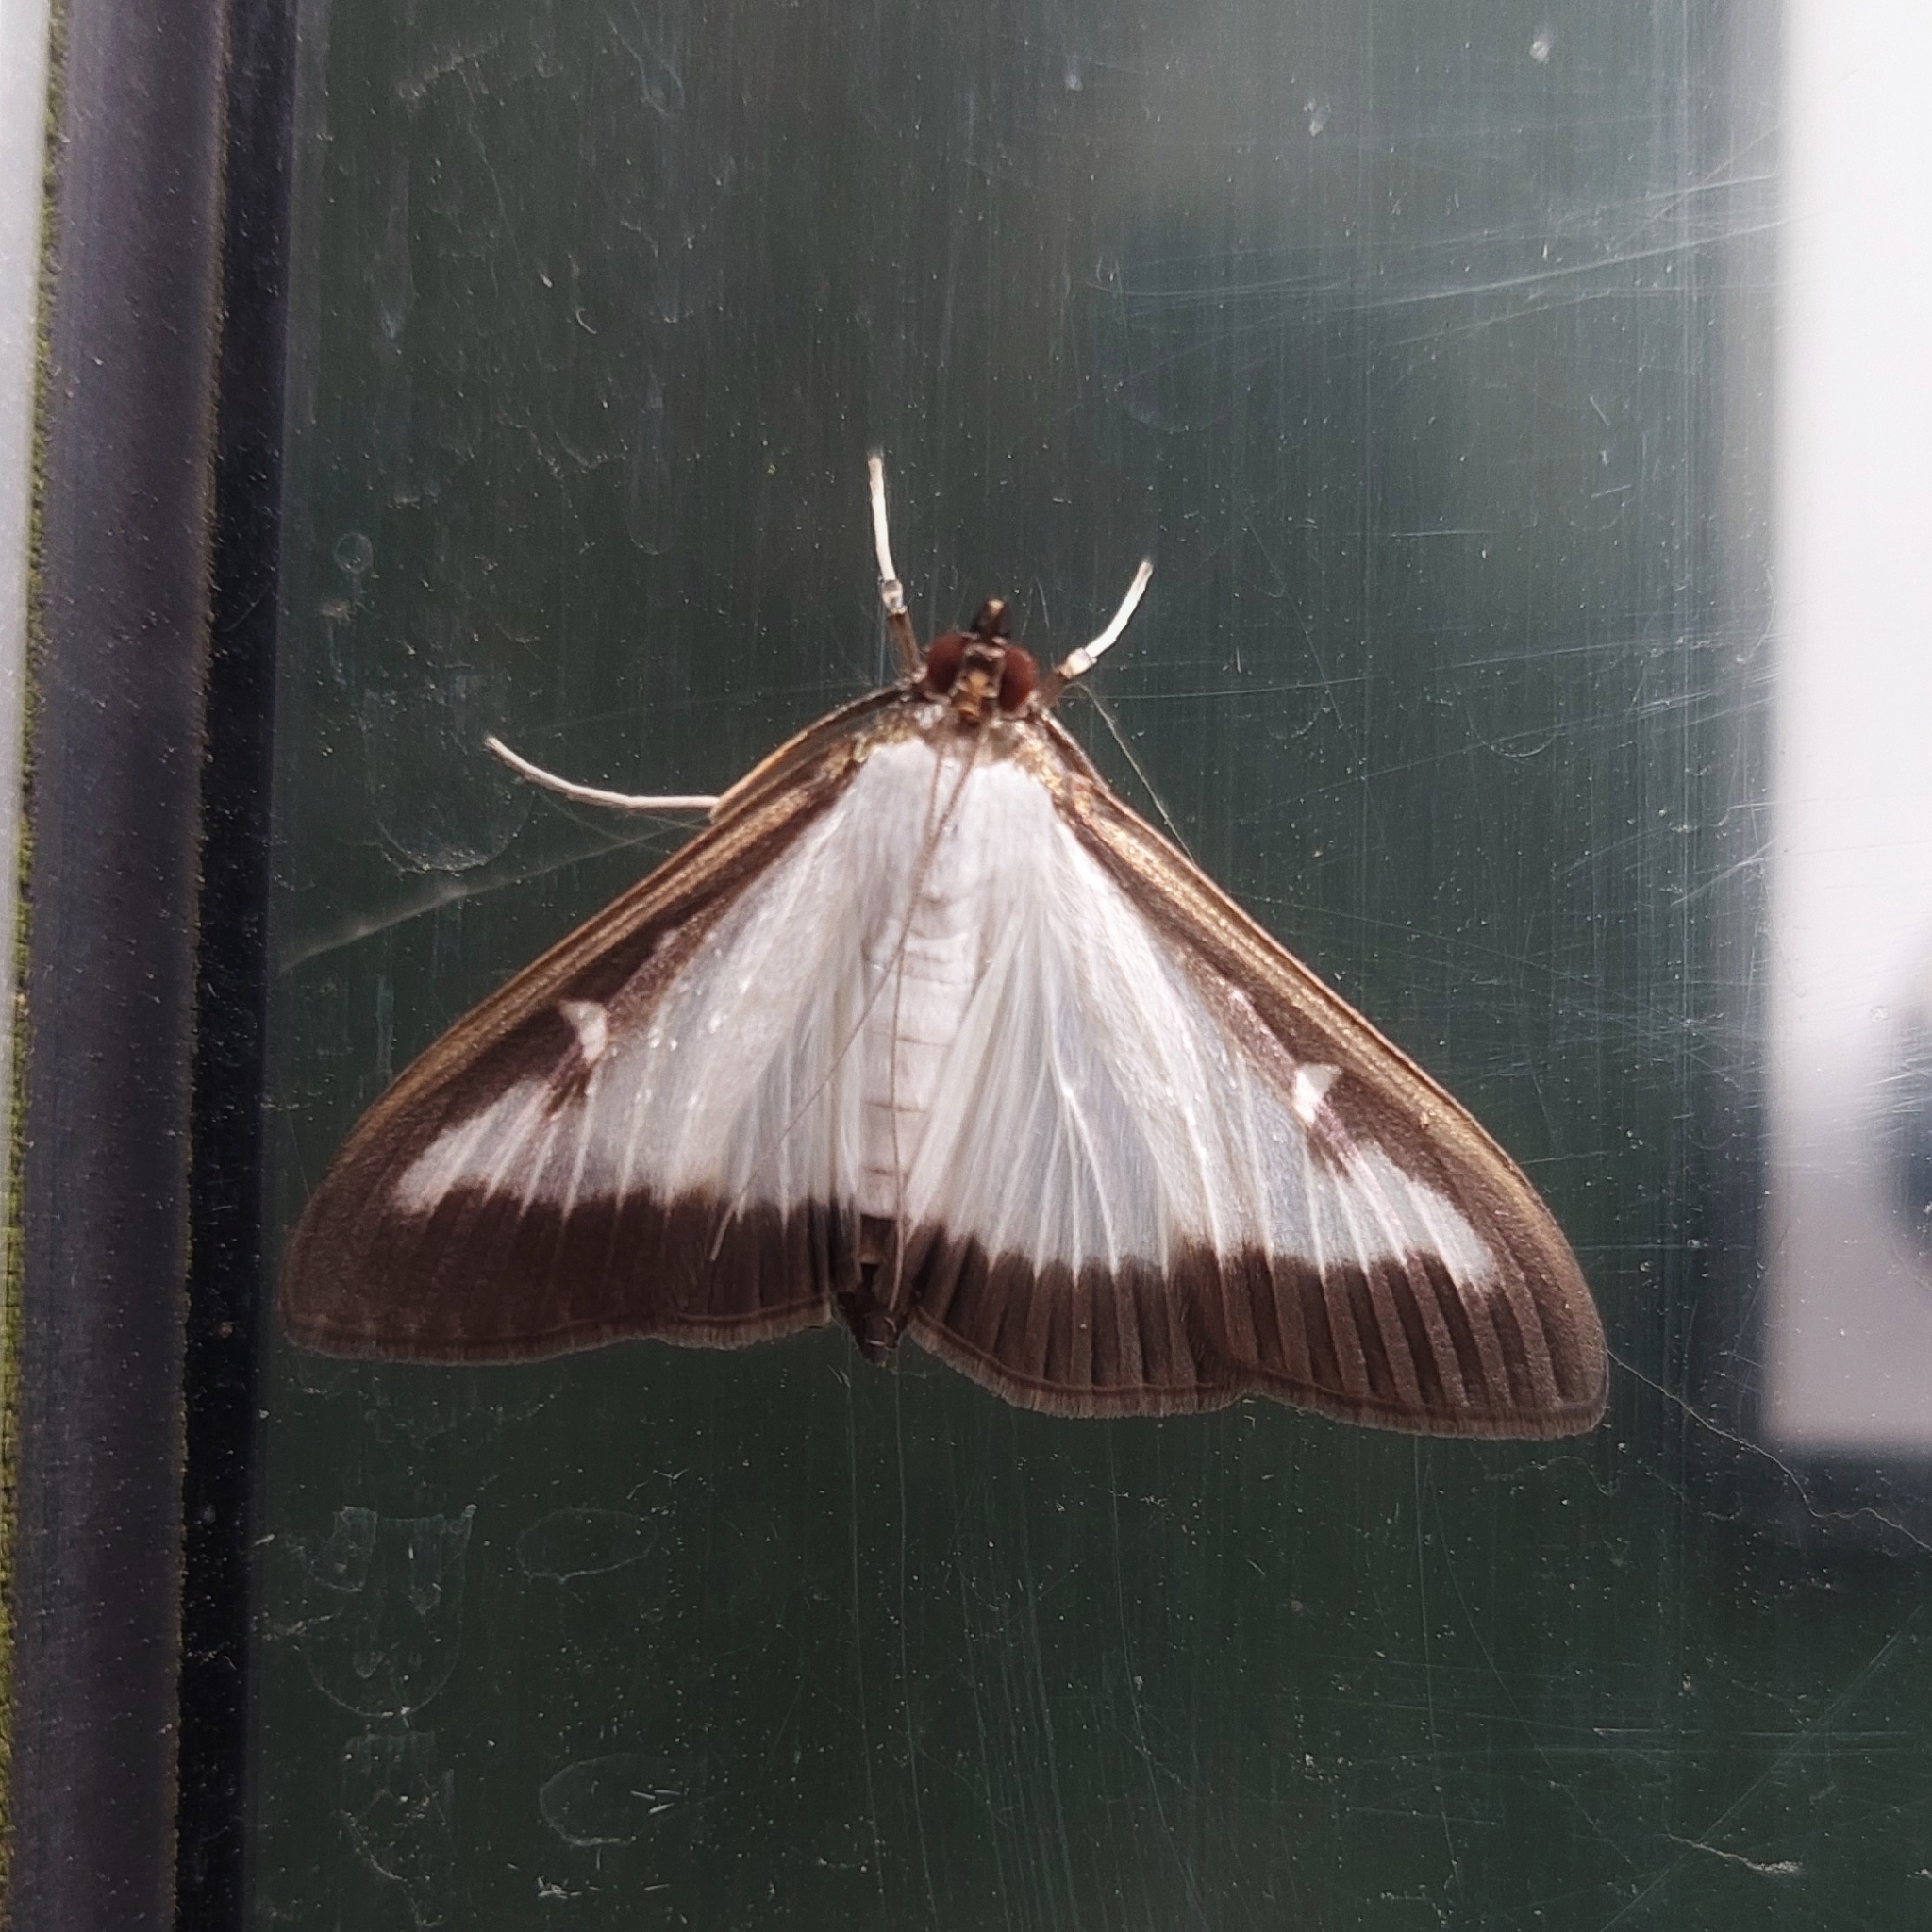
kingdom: Animalia
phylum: Arthropoda
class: Insecta
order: Lepidoptera
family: Crambidae
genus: Cydalima
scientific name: Cydalima perspectalis
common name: Box tree moth
